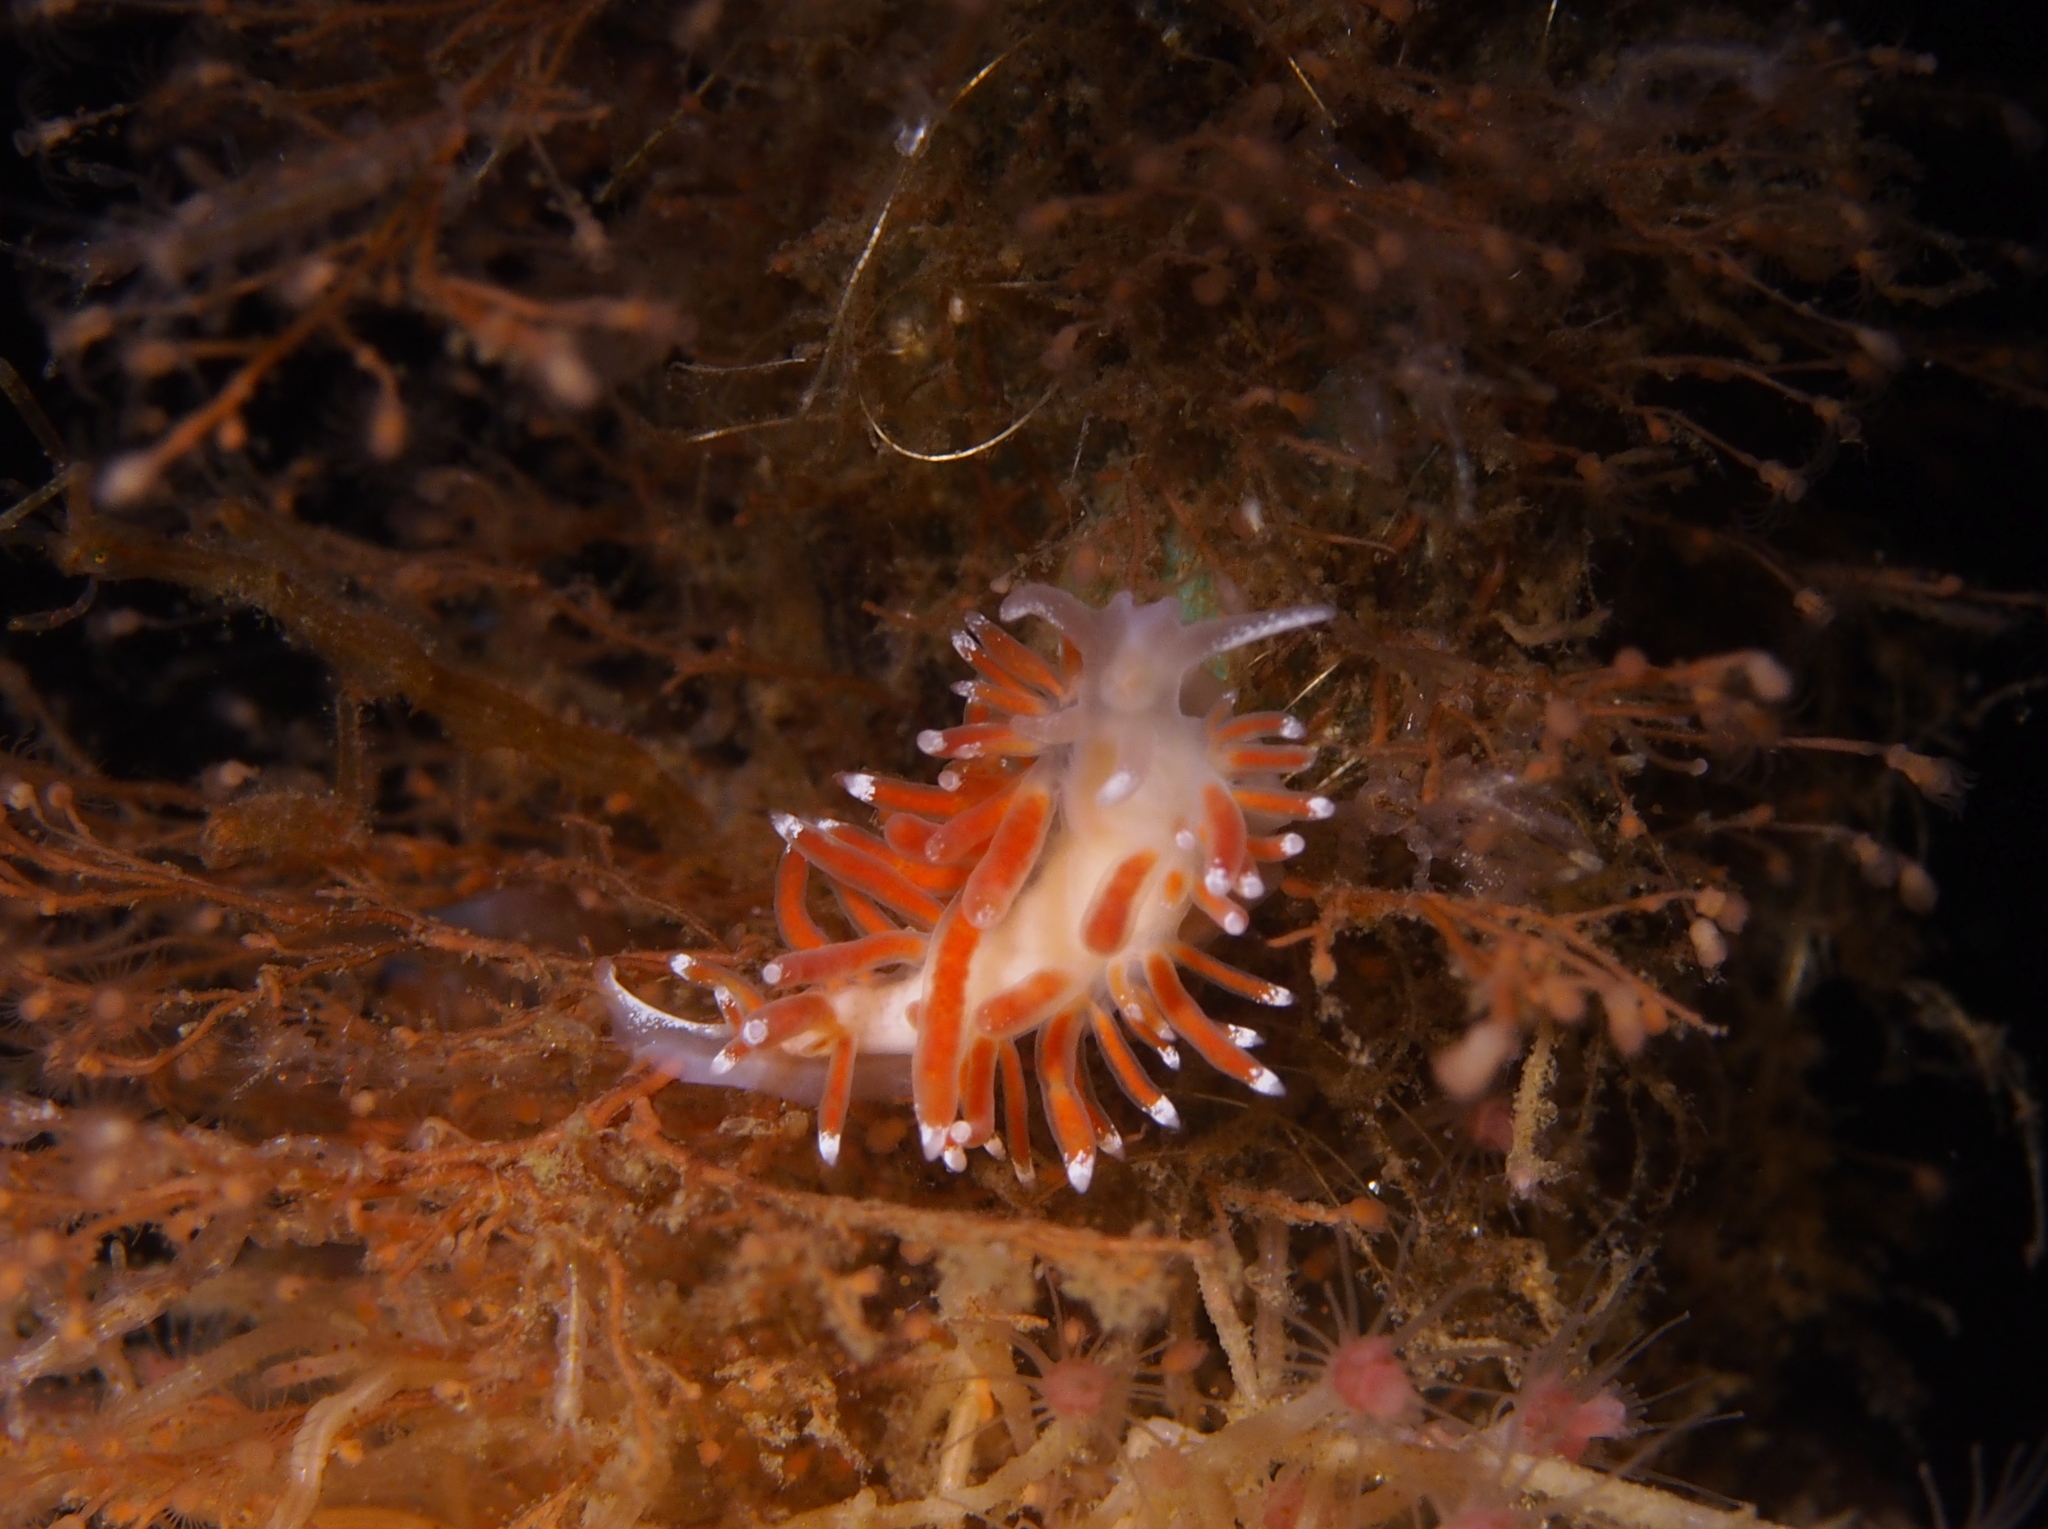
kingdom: Animalia
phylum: Mollusca
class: Gastropoda
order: Nudibranchia
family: Coryphellidae
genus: Coryphella
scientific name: Coryphella gracilis
